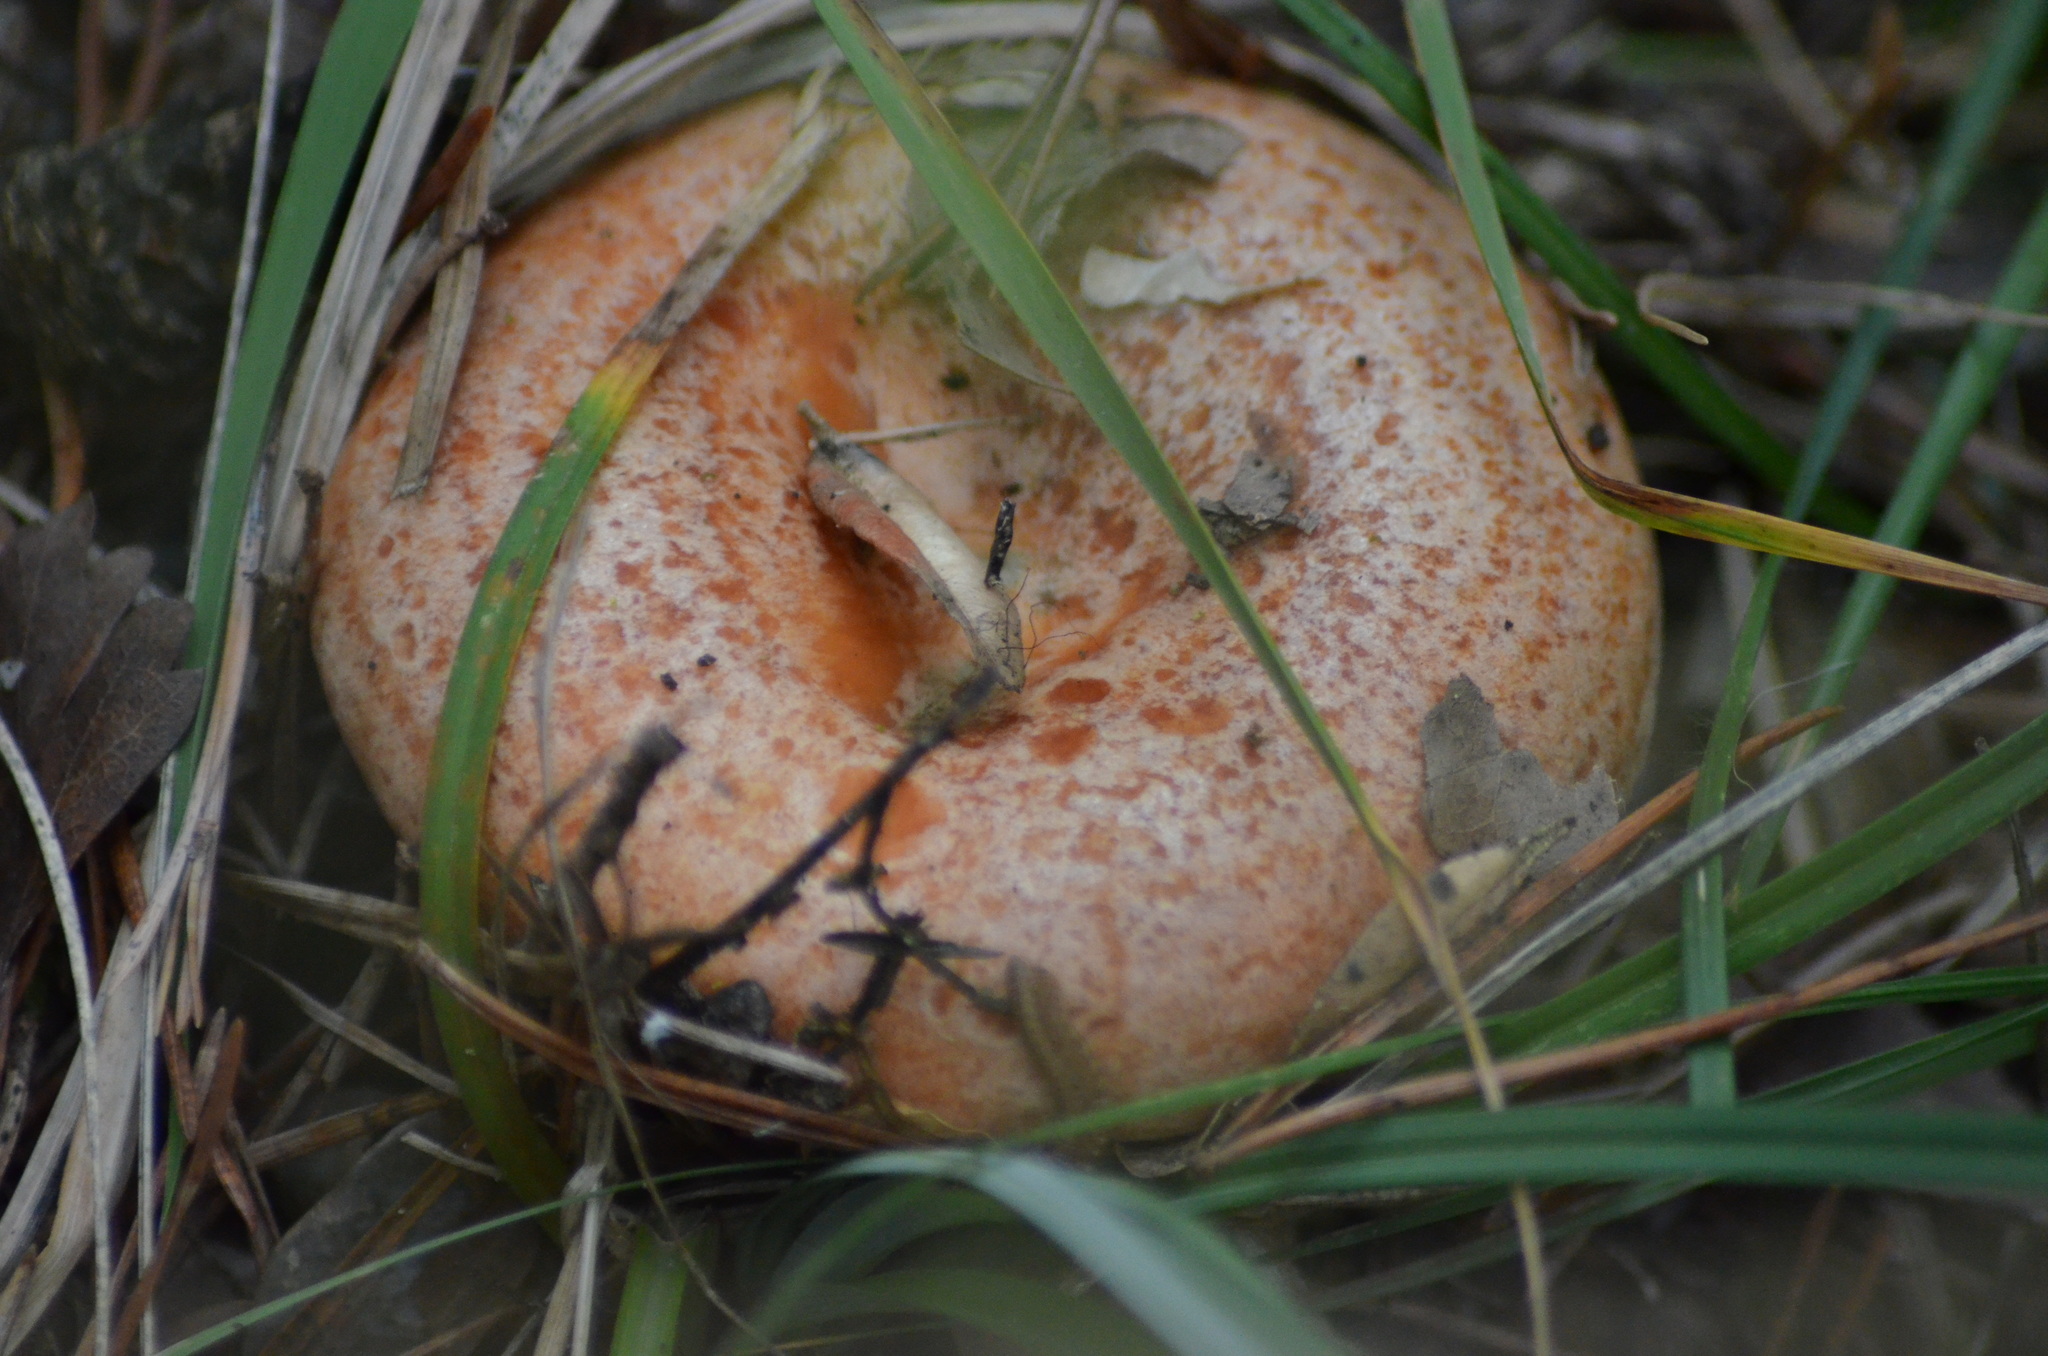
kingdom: Fungi
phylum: Basidiomycota
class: Agaricomycetes
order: Russulales
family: Russulaceae
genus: Lactarius
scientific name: Lactarius deliciosus
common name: Saffron milk-cap
